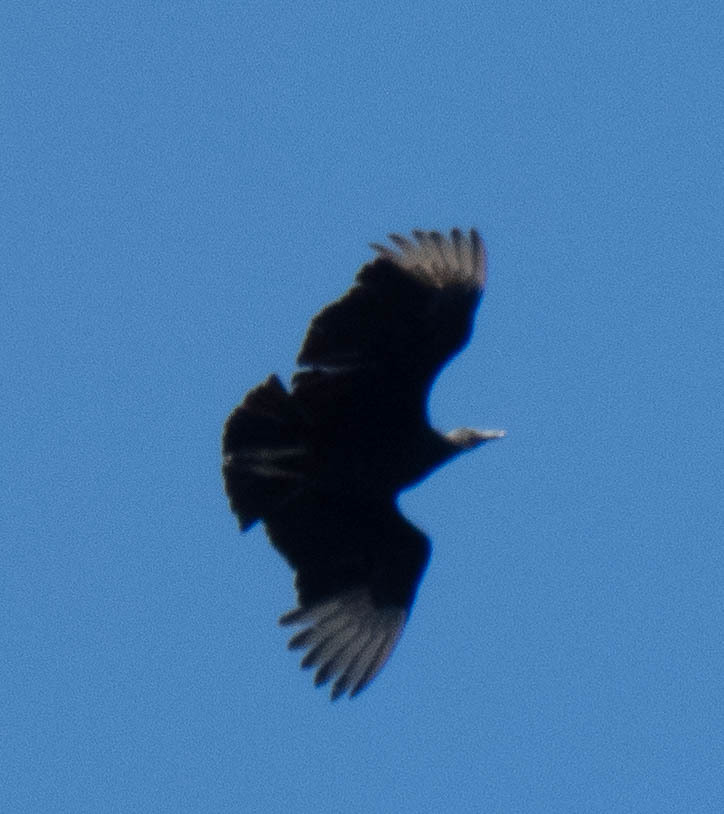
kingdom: Animalia
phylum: Chordata
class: Aves
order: Accipitriformes
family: Cathartidae
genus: Coragyps
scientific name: Coragyps atratus
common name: Black vulture
